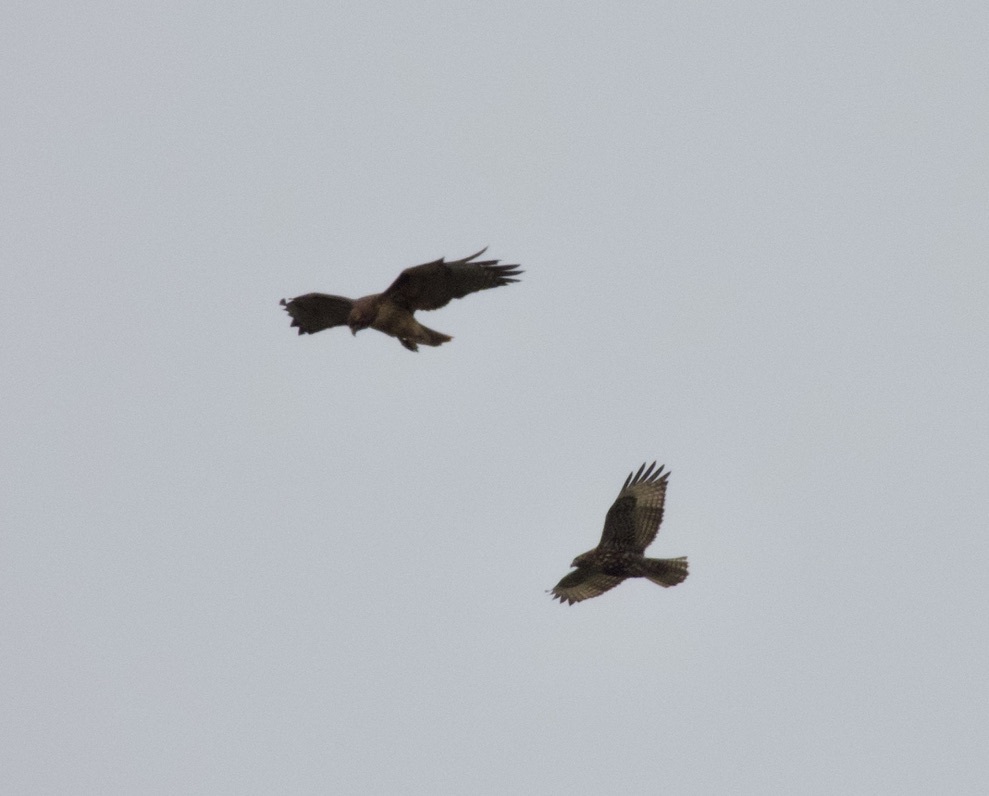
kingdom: Animalia
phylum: Chordata
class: Aves
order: Accipitriformes
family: Accipitridae
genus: Buteo
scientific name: Buteo jamaicensis
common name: Red-tailed hawk
